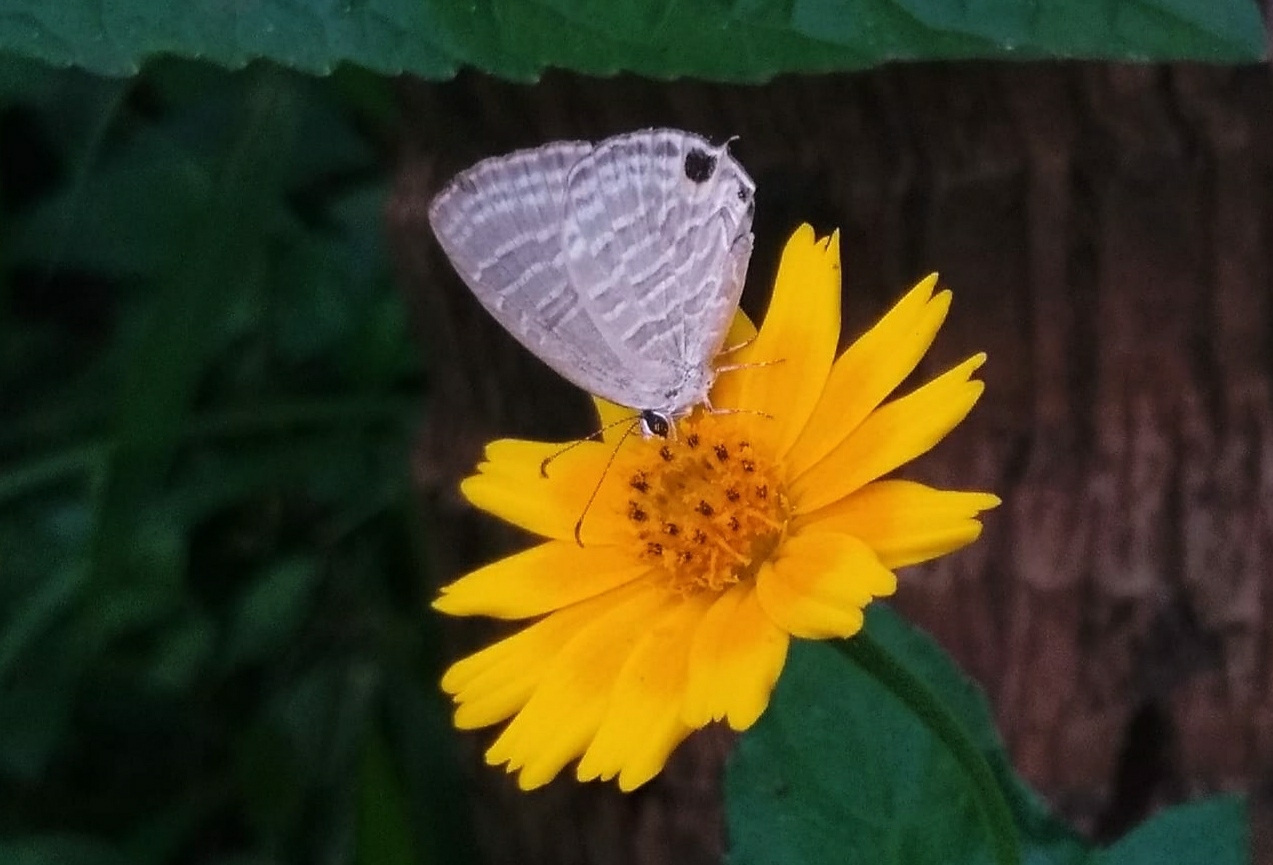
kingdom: Animalia
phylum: Arthropoda
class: Insecta
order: Lepidoptera
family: Lycaenidae
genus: Jamides
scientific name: Jamides celeno
